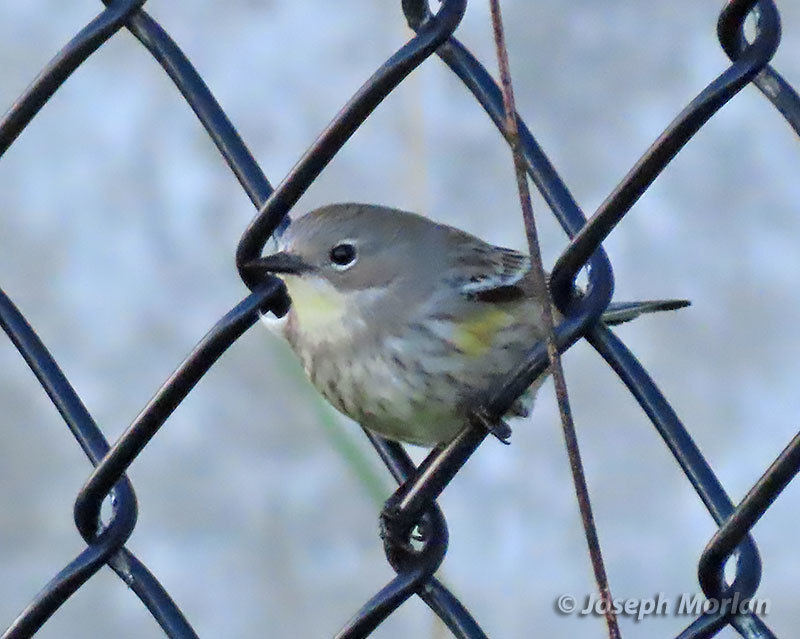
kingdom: Animalia
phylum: Chordata
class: Aves
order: Passeriformes
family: Parulidae
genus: Setophaga
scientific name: Setophaga coronata
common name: Myrtle warbler
